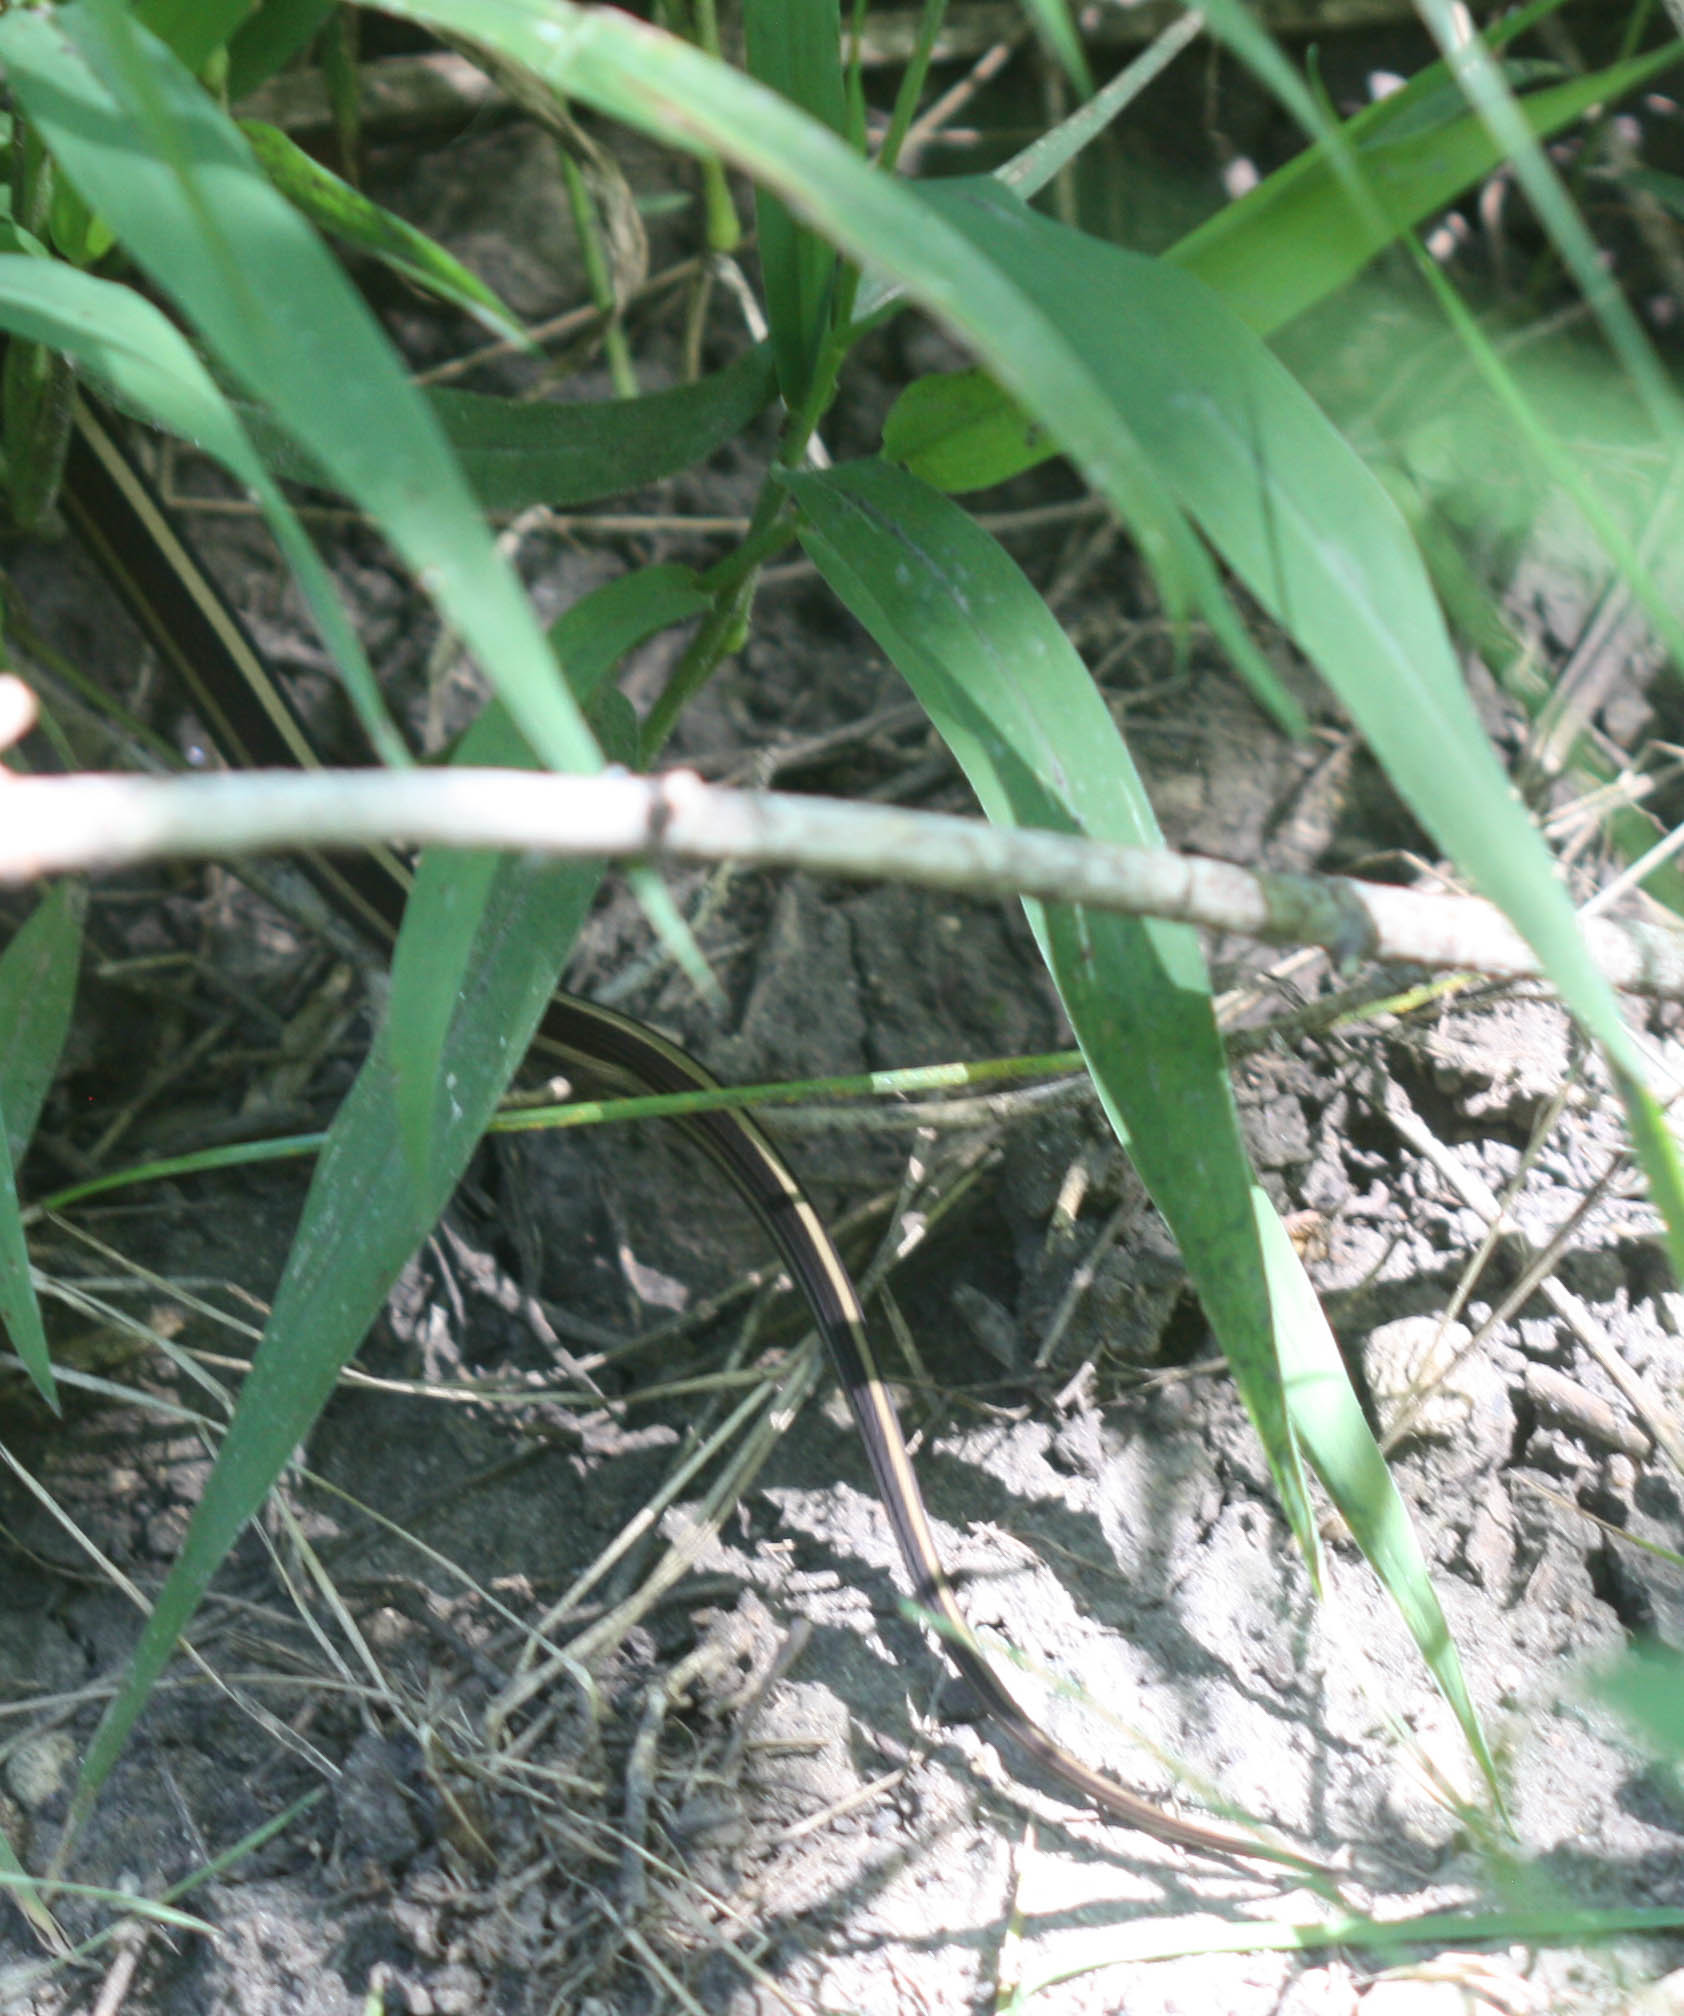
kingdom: Animalia
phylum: Chordata
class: Squamata
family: Colubridae
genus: Thamnophis
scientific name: Thamnophis
